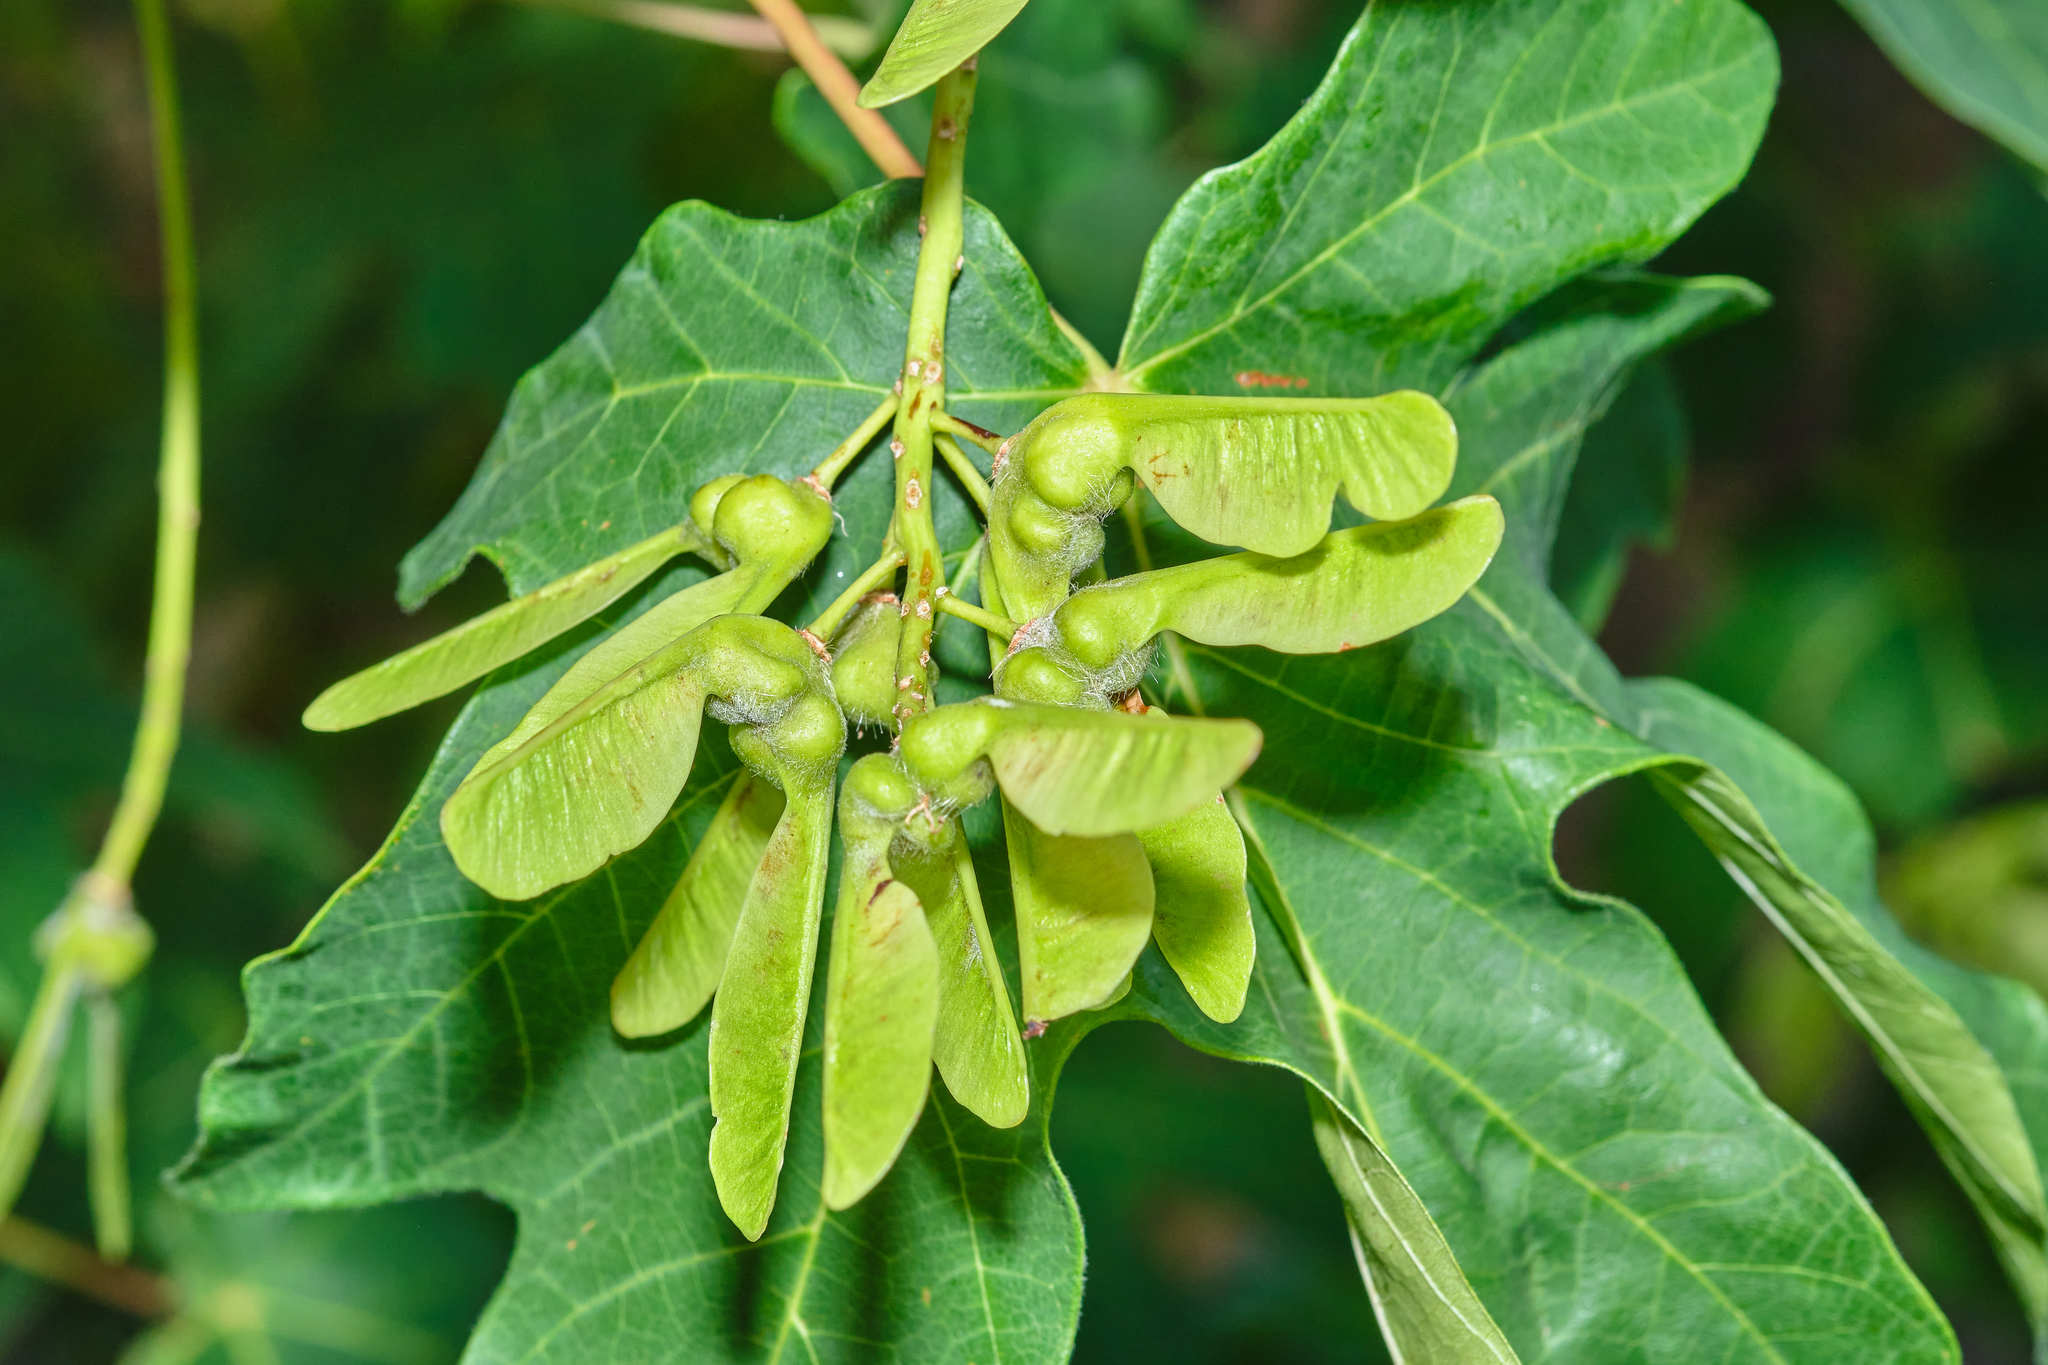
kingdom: Plantae
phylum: Tracheophyta
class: Magnoliopsida
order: Sapindales
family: Sapindaceae
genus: Acer
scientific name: Acer macrophyllum
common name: Oregon maple
